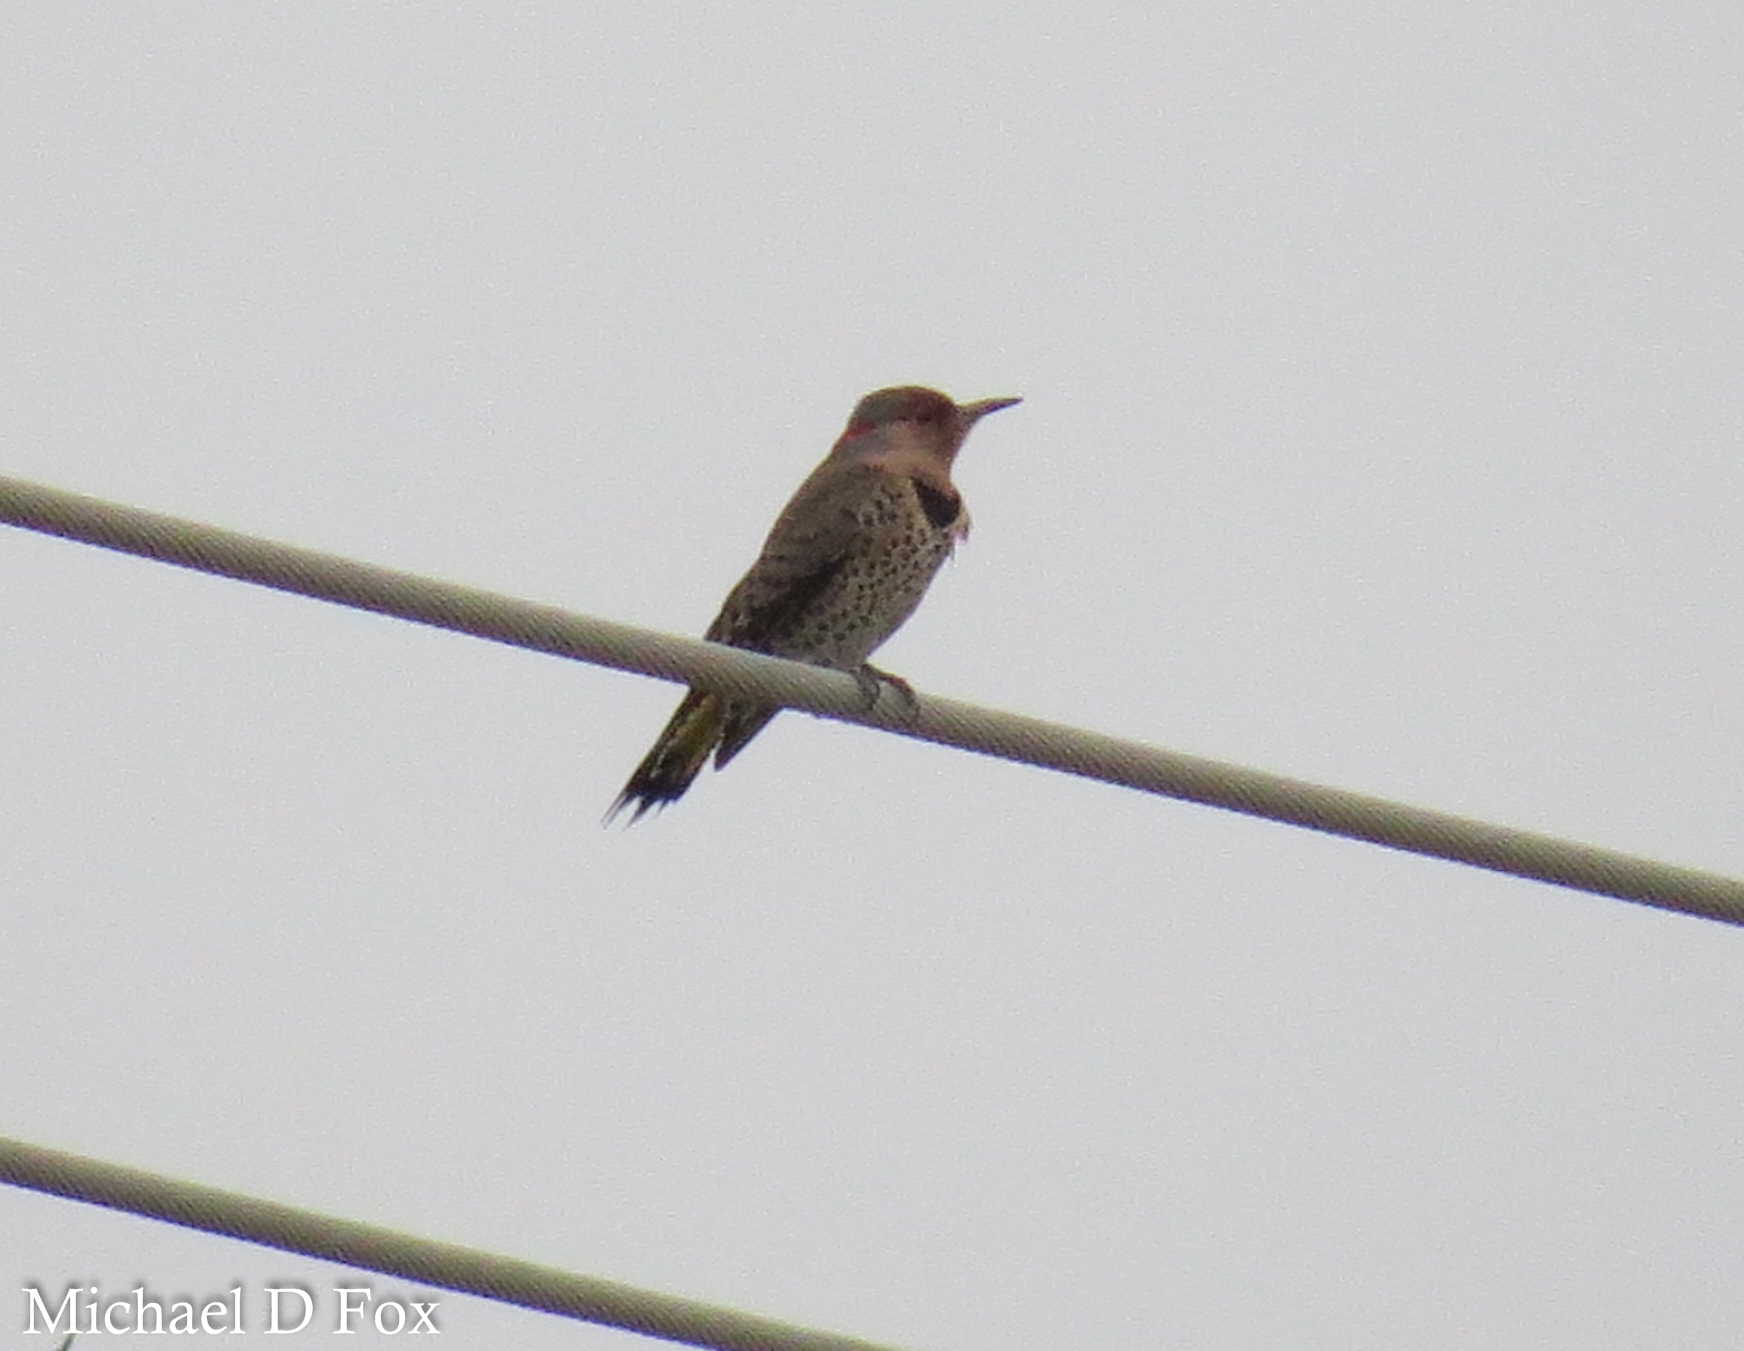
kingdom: Animalia
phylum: Chordata
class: Aves
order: Piciformes
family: Picidae
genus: Colaptes
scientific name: Colaptes auratus
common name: Northern flicker
